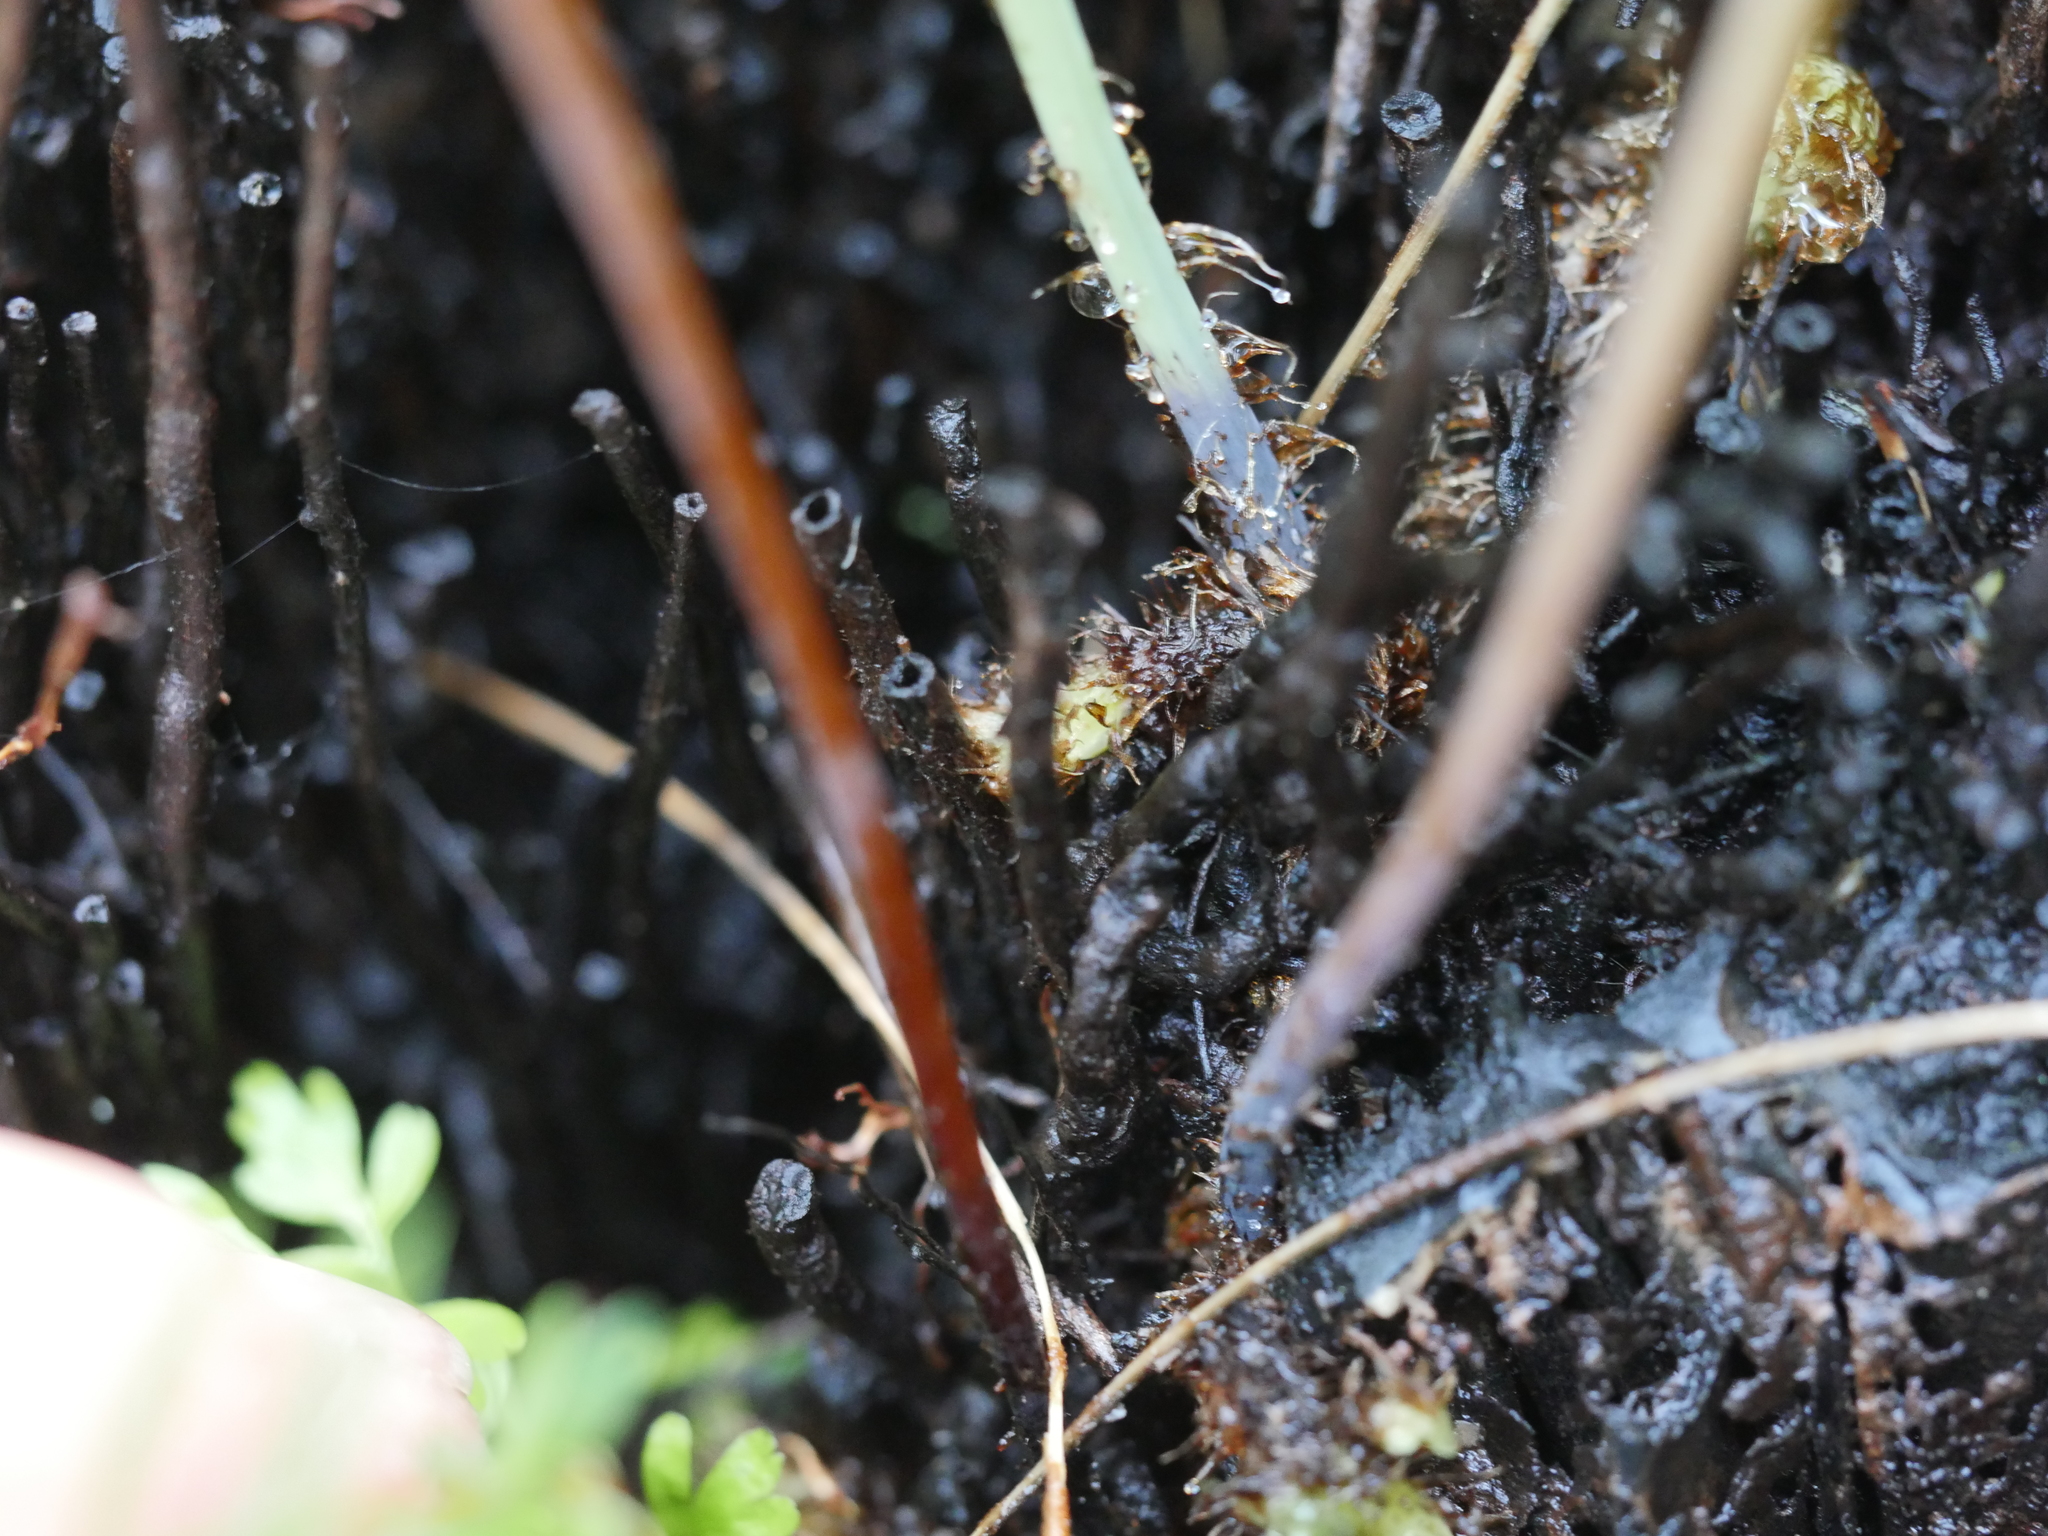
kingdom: Plantae
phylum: Tracheophyta
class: Polypodiopsida
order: Polypodiales
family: Dennstaedtiaceae
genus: Histiopteris
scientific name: Histiopteris incisa
